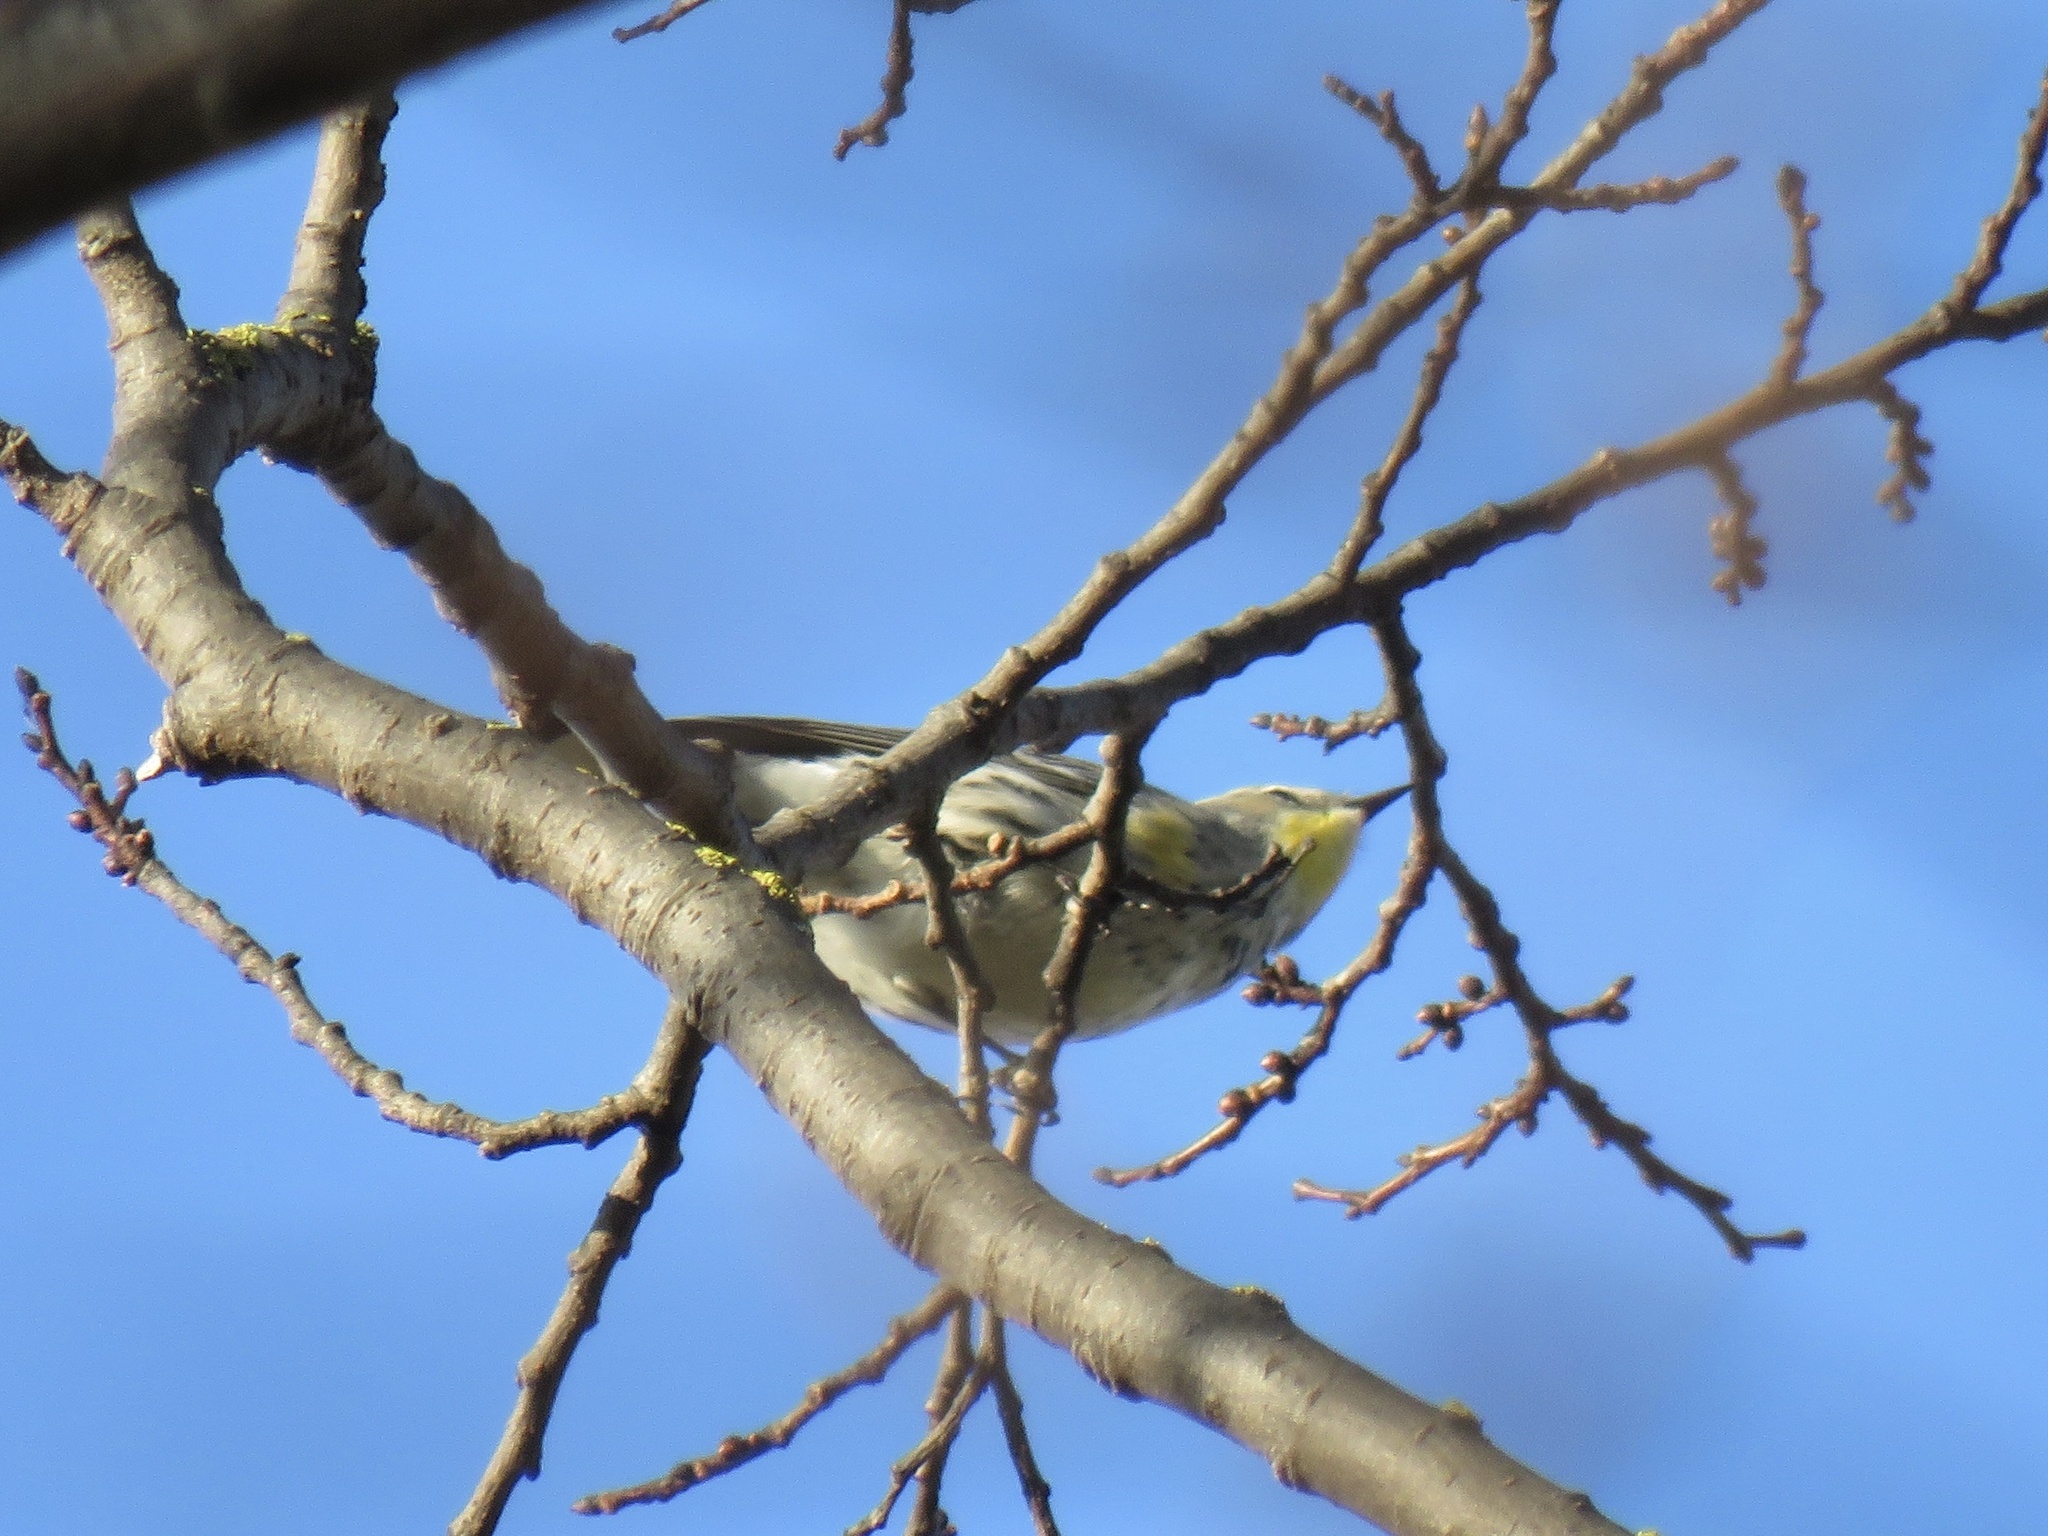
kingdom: Animalia
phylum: Chordata
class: Aves
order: Passeriformes
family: Parulidae
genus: Setophaga
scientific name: Setophaga coronata
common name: Myrtle warbler
